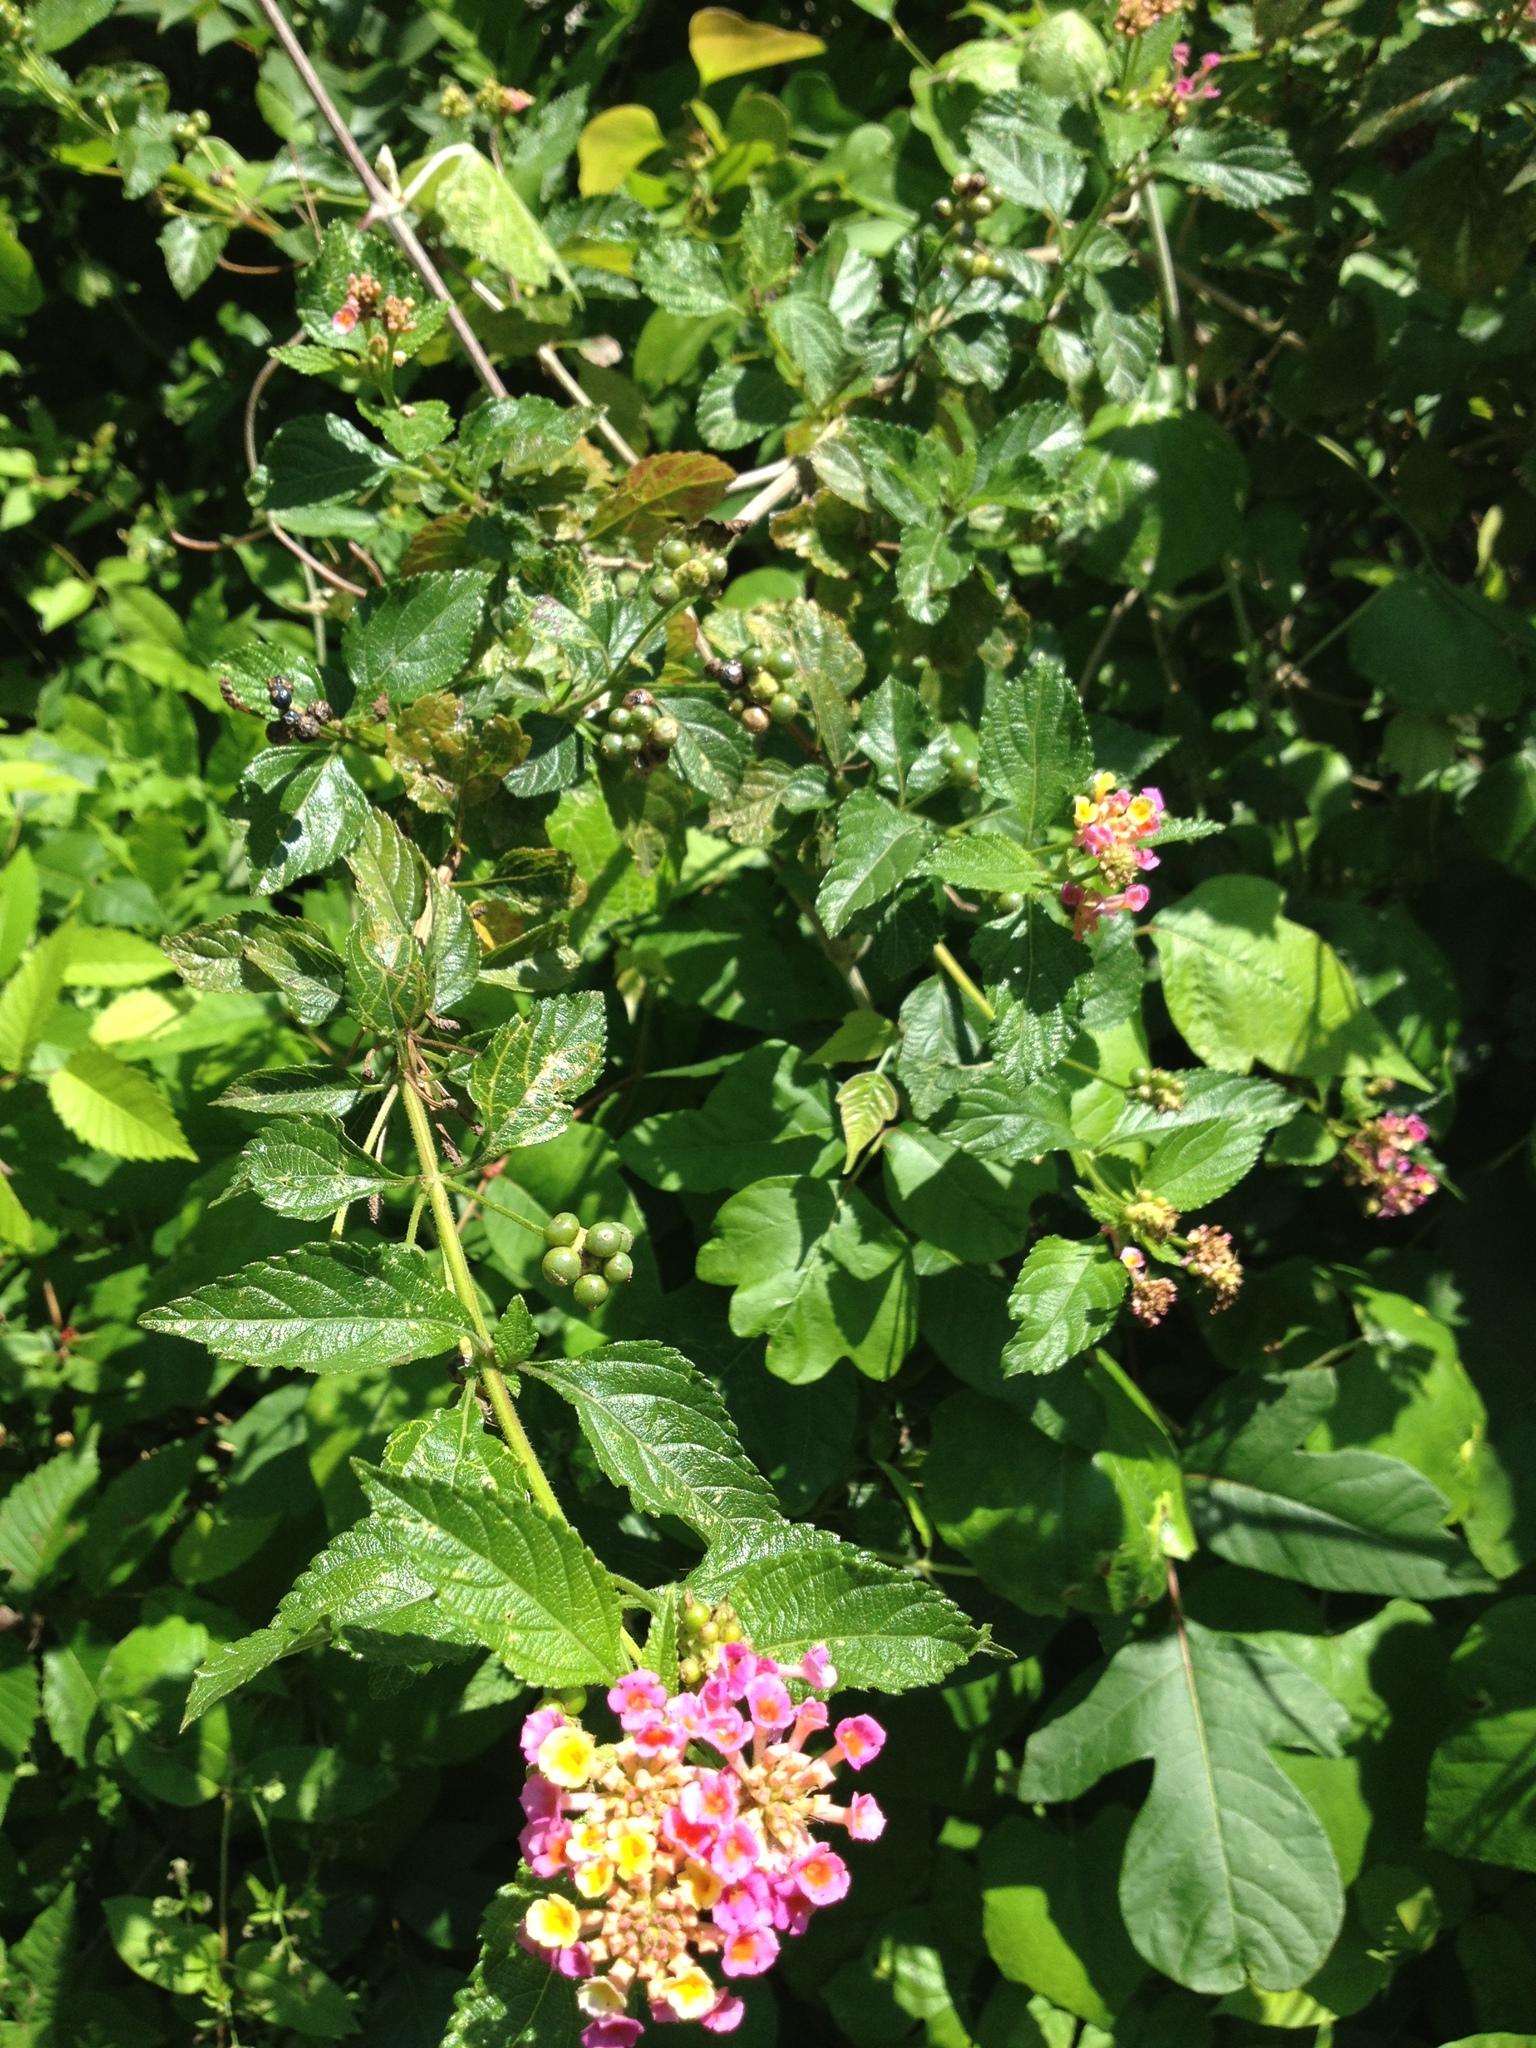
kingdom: Plantae
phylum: Tracheophyta
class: Magnoliopsida
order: Lamiales
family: Verbenaceae
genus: Lantana
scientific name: Lantana strigocamara
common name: Lantana
